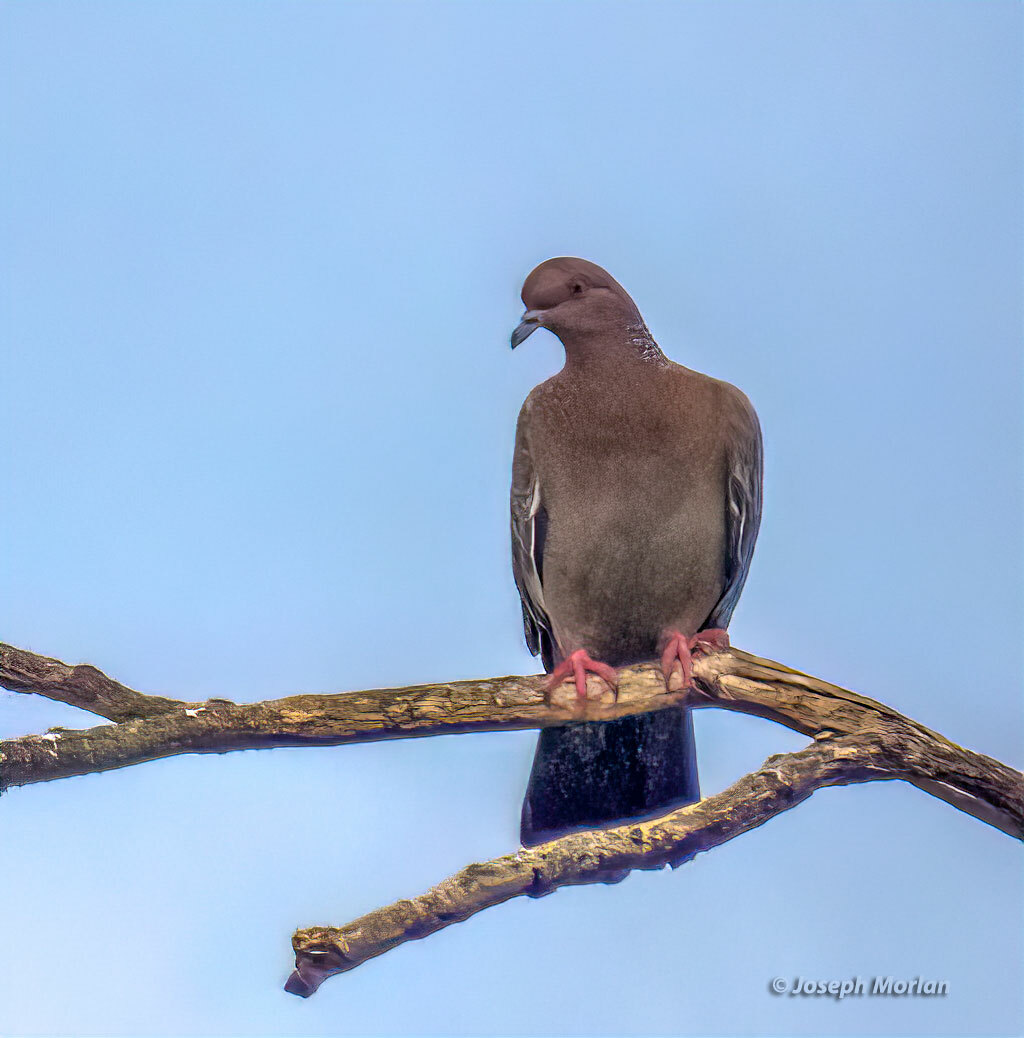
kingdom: Animalia
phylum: Chordata
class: Aves
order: Columbiformes
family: Columbidae
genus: Patagioenas
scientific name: Patagioenas picazuro
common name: Picazuro pigeon
